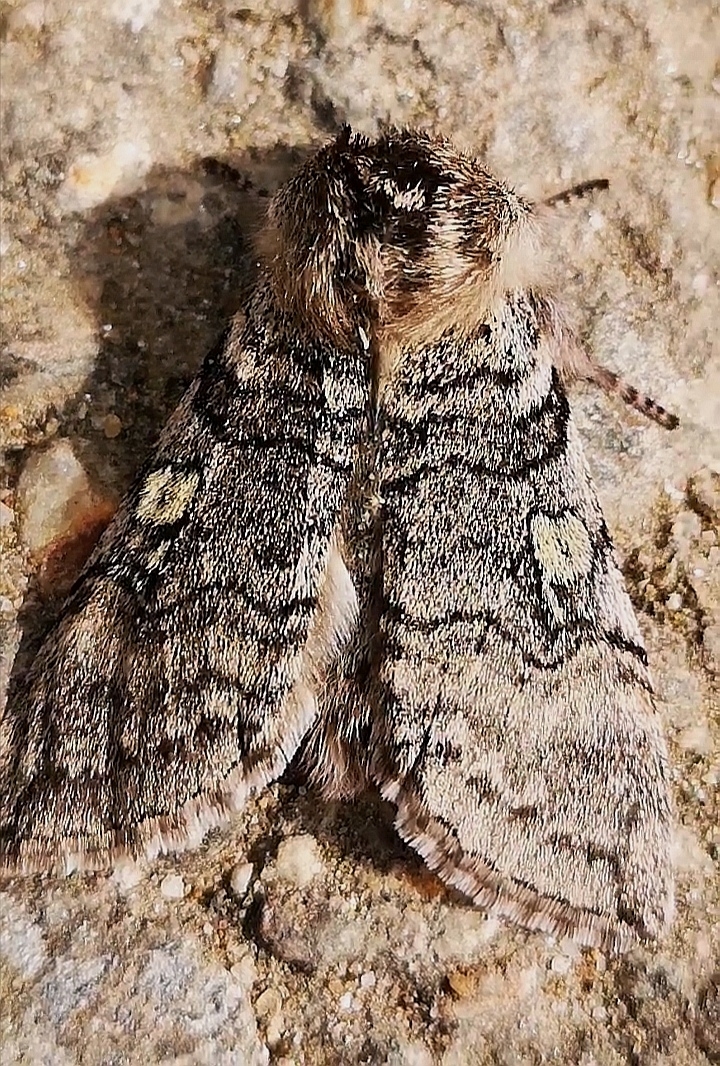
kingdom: Animalia
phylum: Arthropoda
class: Insecta
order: Lepidoptera
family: Drepanidae
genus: Achlya
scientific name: Achlya flavicornis
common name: Yellow horned
